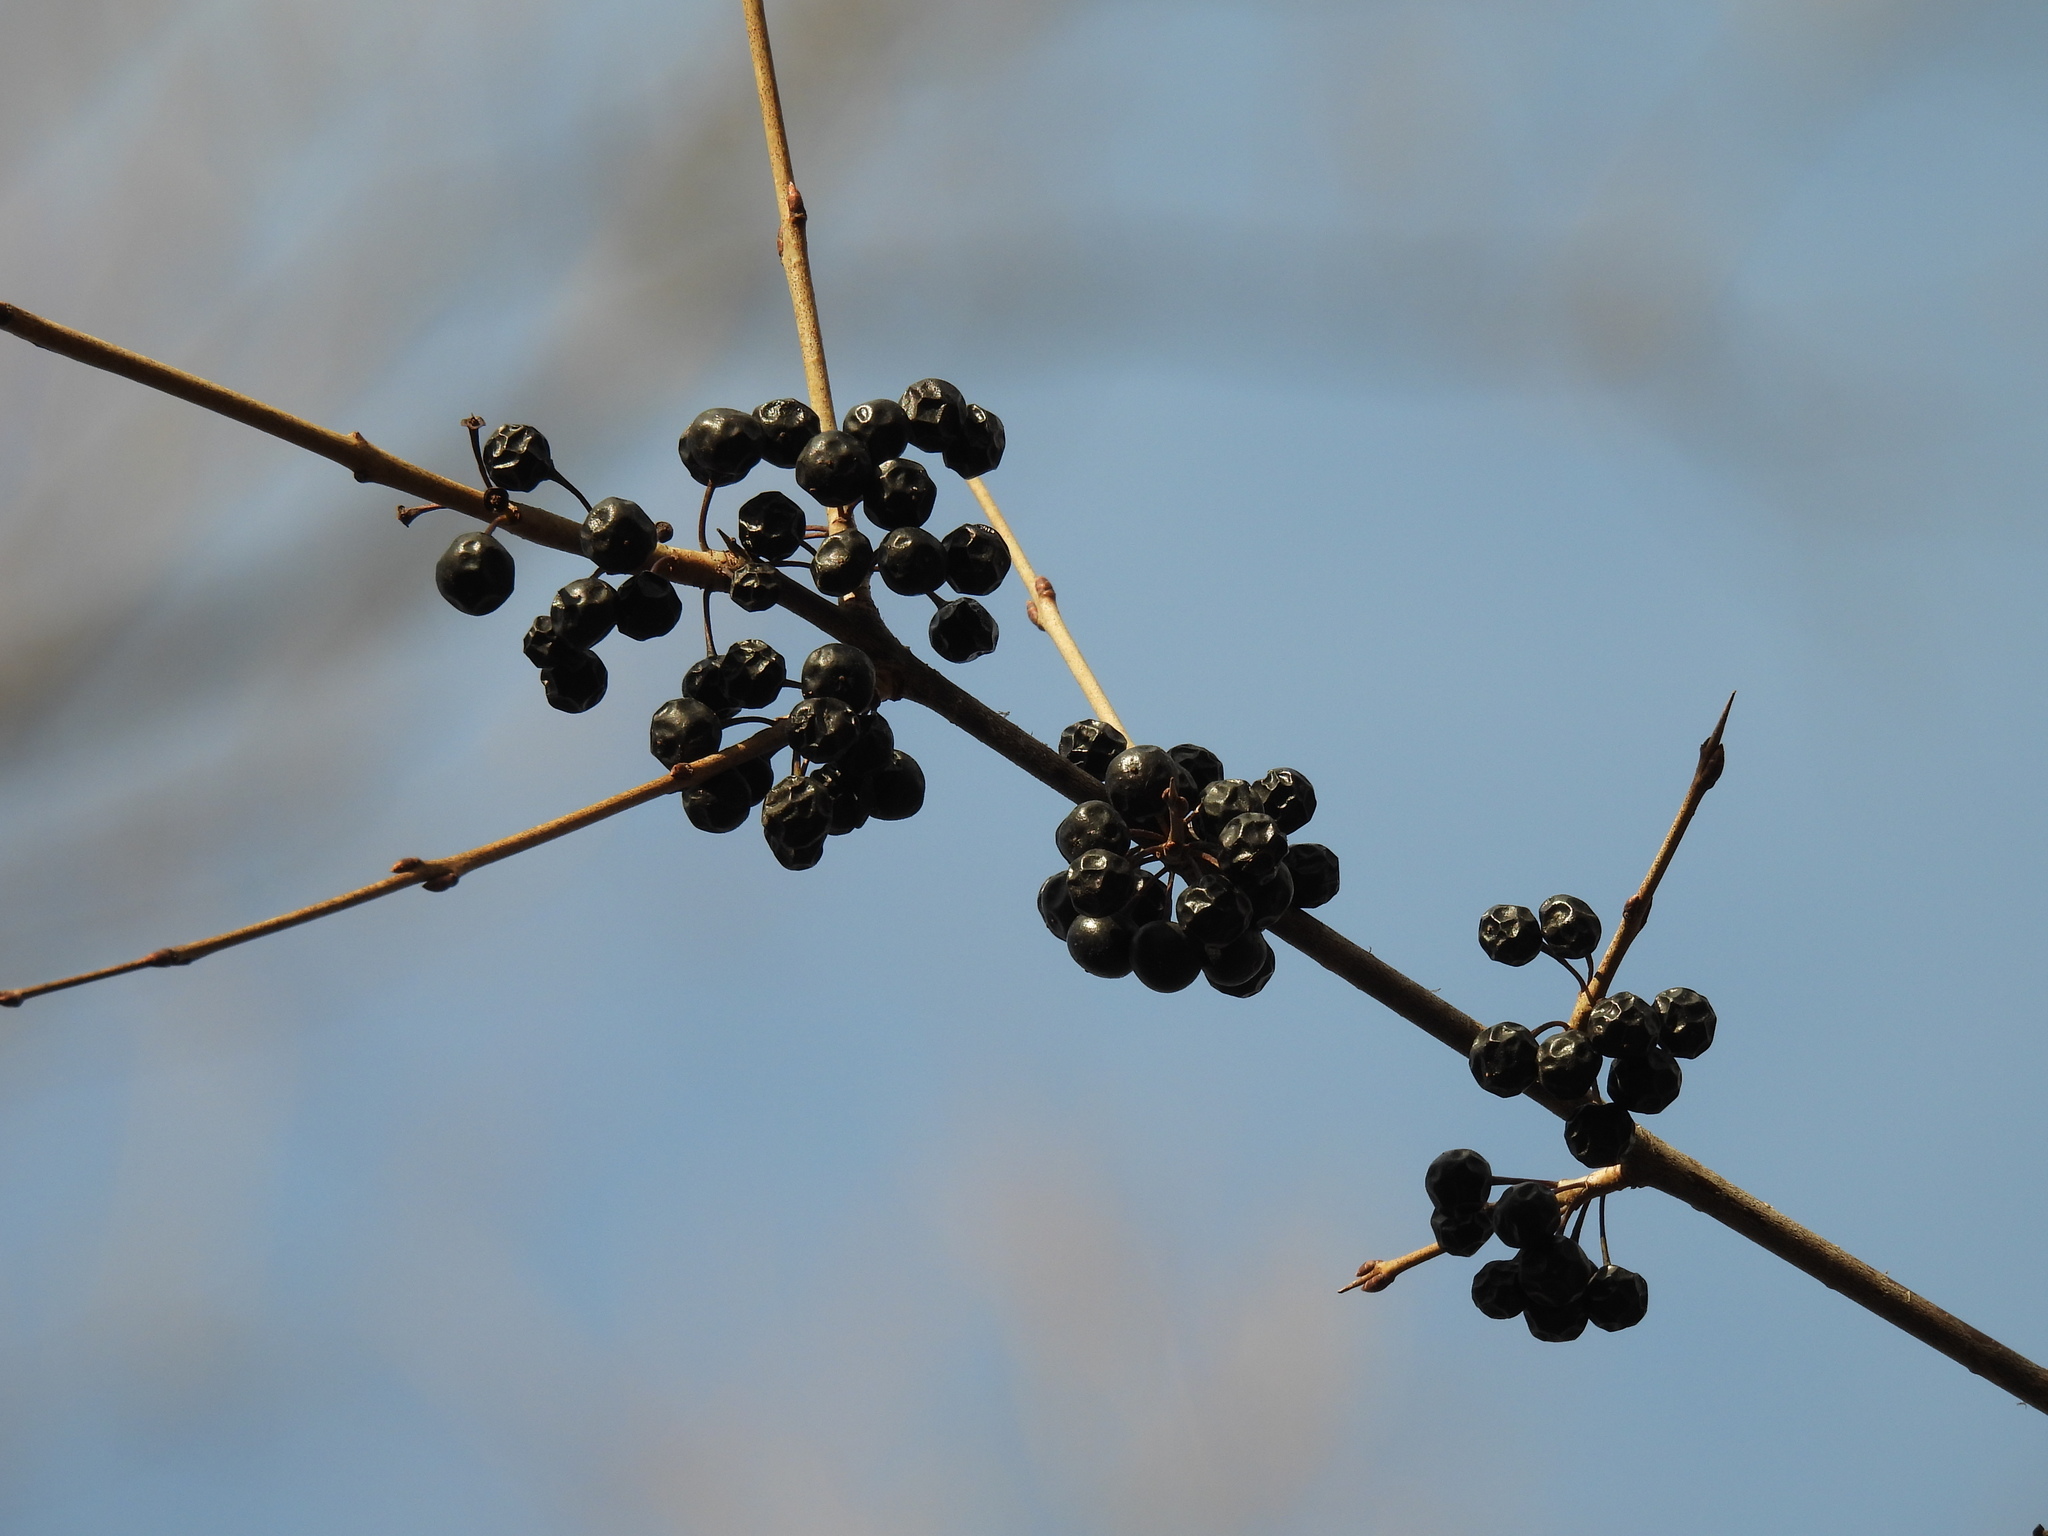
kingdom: Plantae
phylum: Tracheophyta
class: Magnoliopsida
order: Rosales
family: Rhamnaceae
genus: Rhamnus
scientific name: Rhamnus cathartica
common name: Common buckthorn
